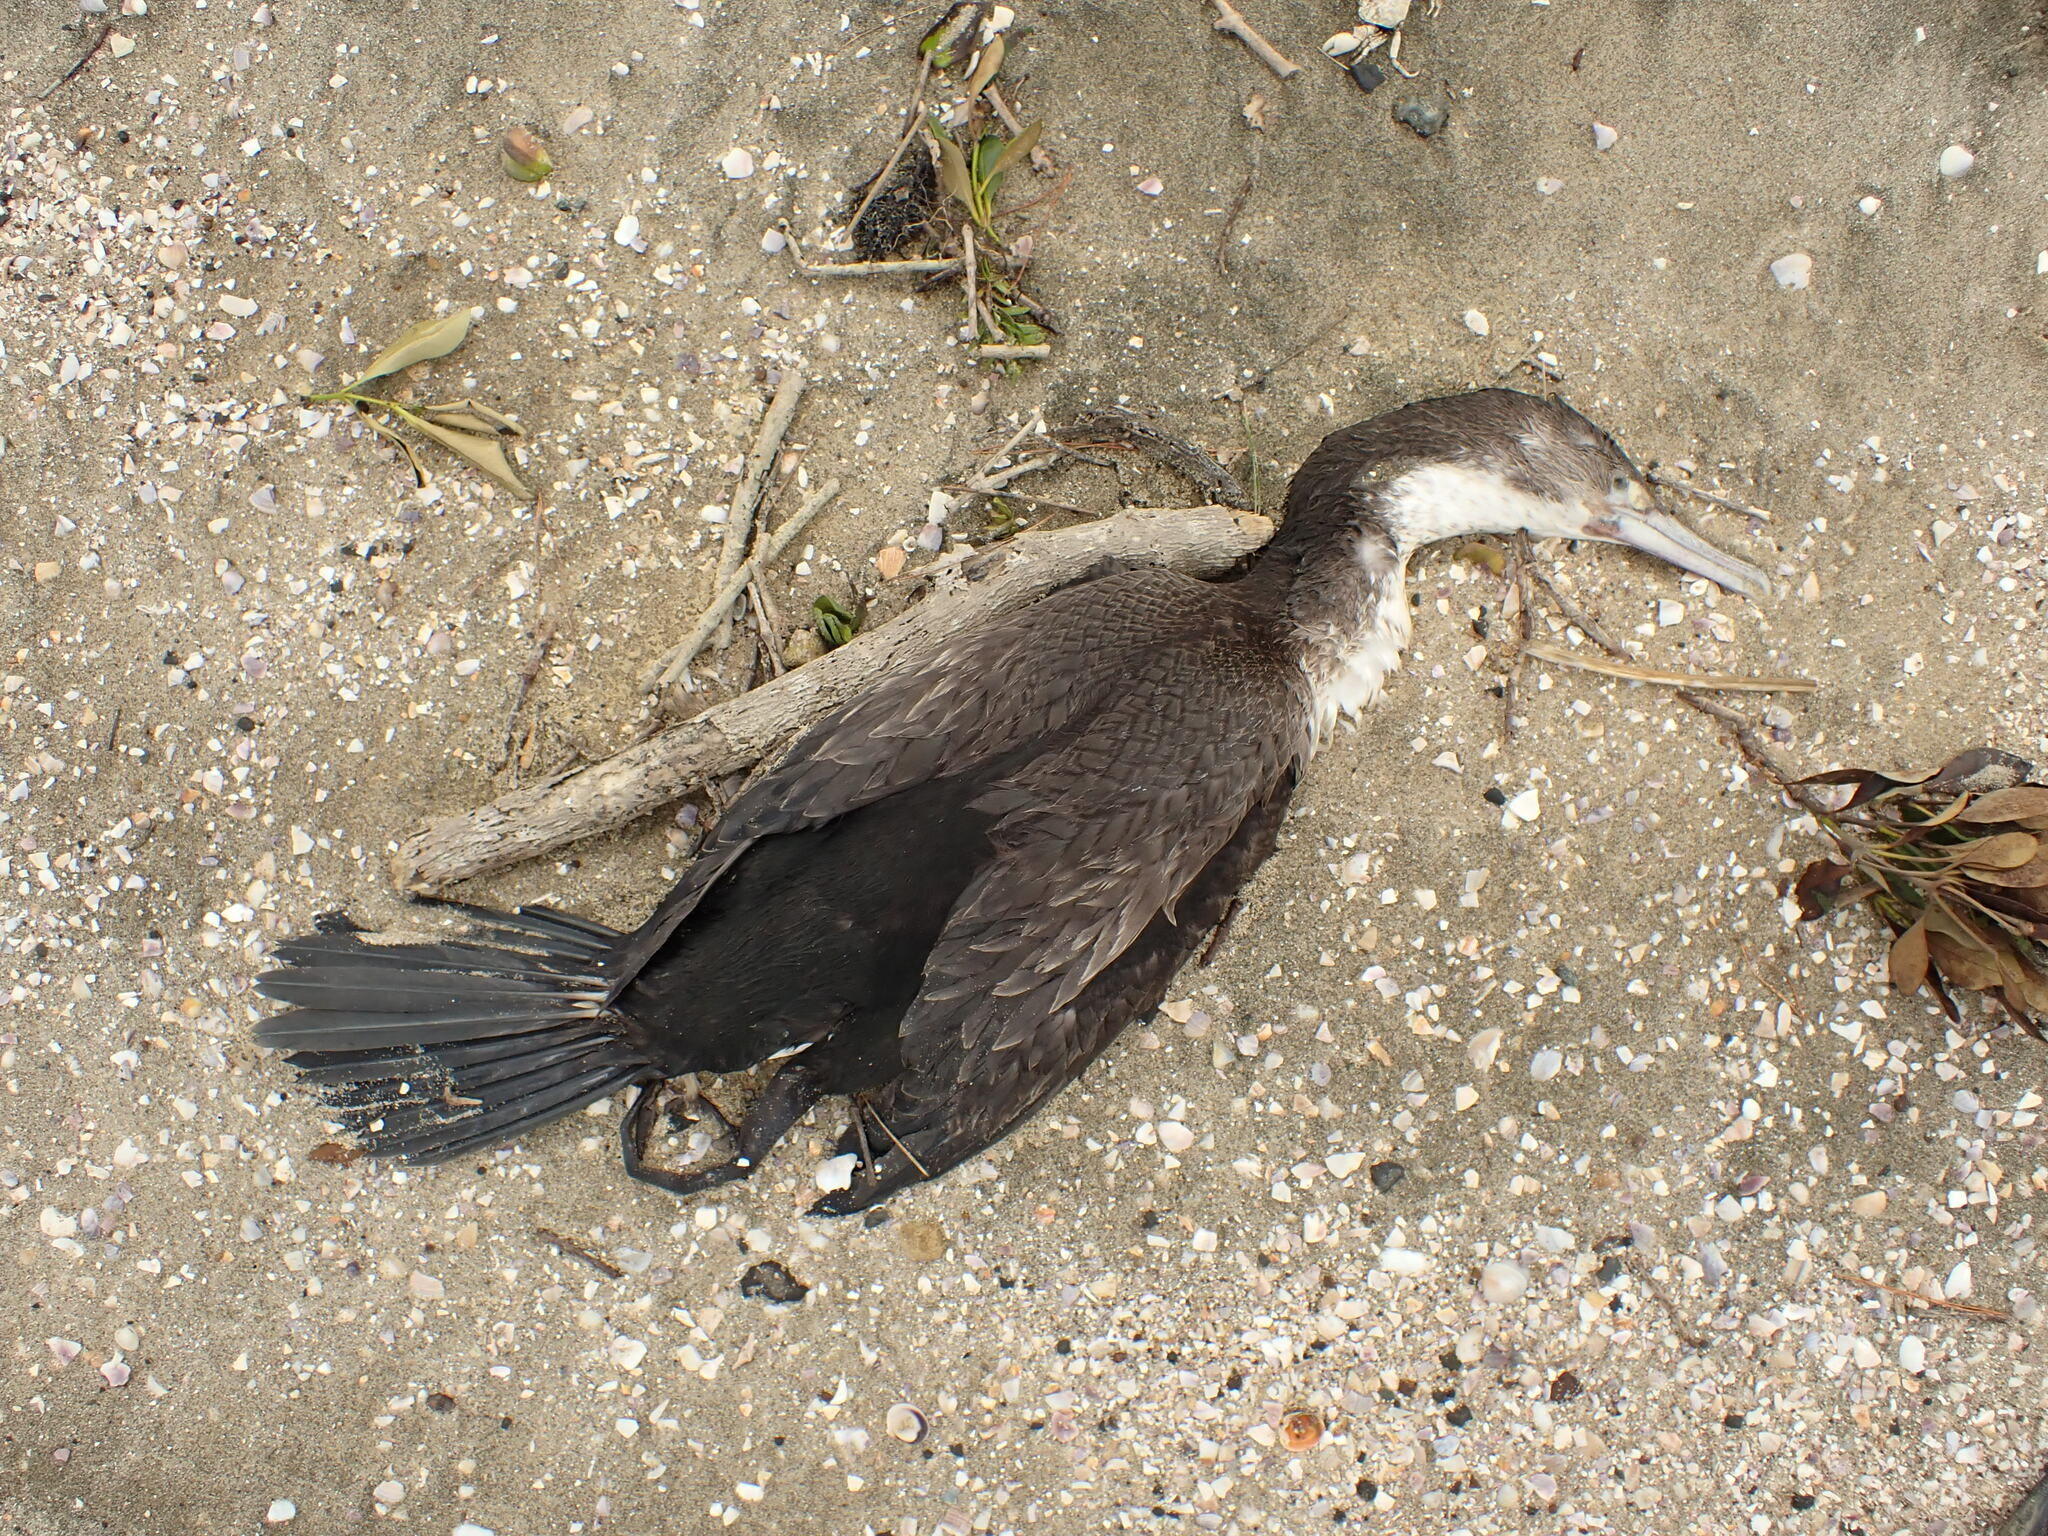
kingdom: Animalia
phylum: Chordata
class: Aves
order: Suliformes
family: Phalacrocoracidae
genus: Phalacrocorax
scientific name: Phalacrocorax varius
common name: Pied cormorant
